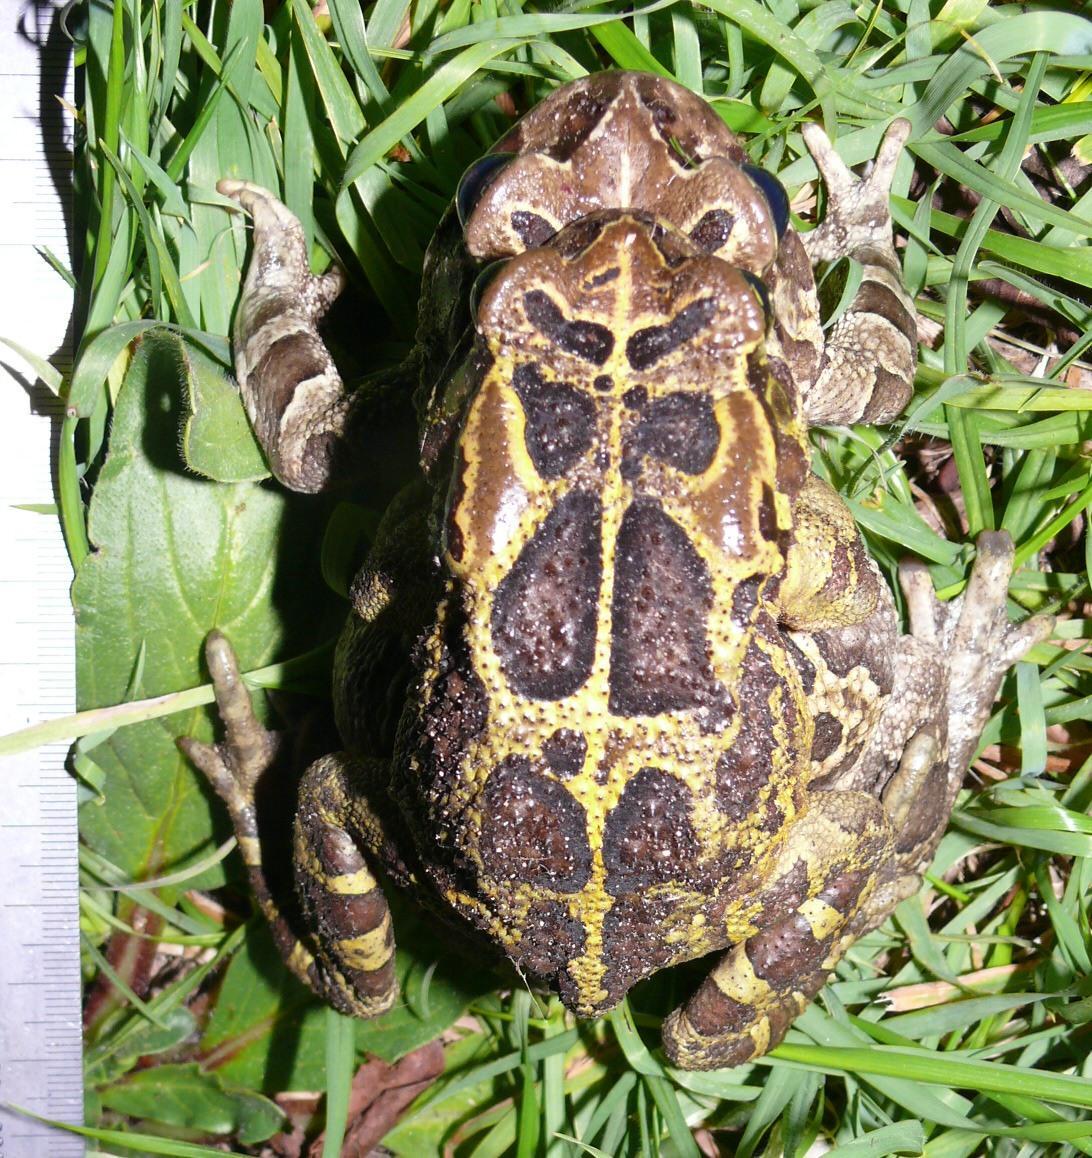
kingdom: Animalia
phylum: Chordata
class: Amphibia
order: Anura
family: Bufonidae
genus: Sclerophrys
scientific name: Sclerophrys pantherina
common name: Panther toad
